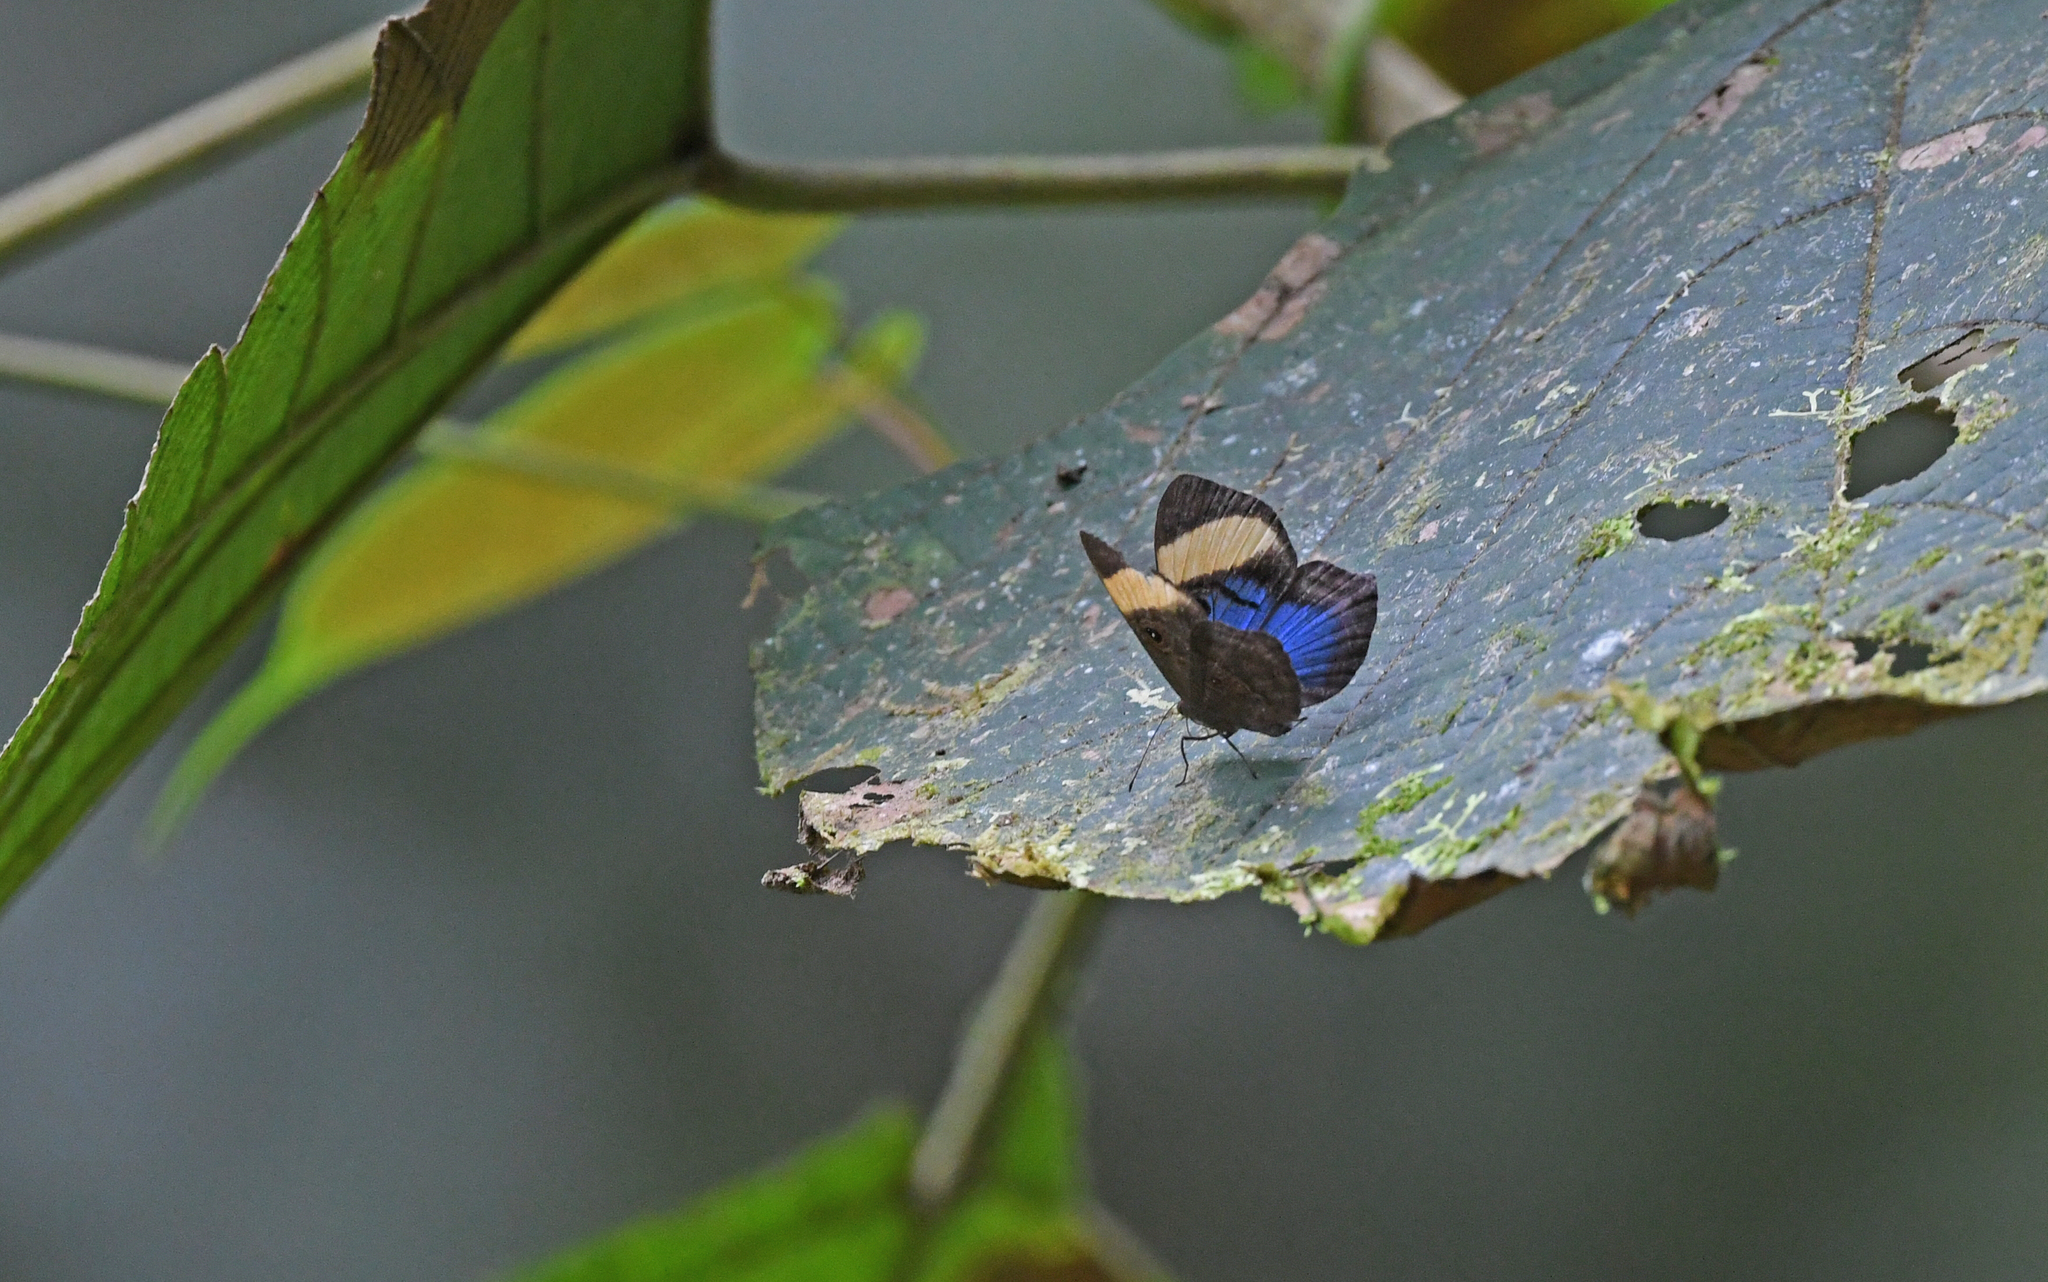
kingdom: Animalia
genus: Mesosemia
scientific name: Mesosemia mevania
